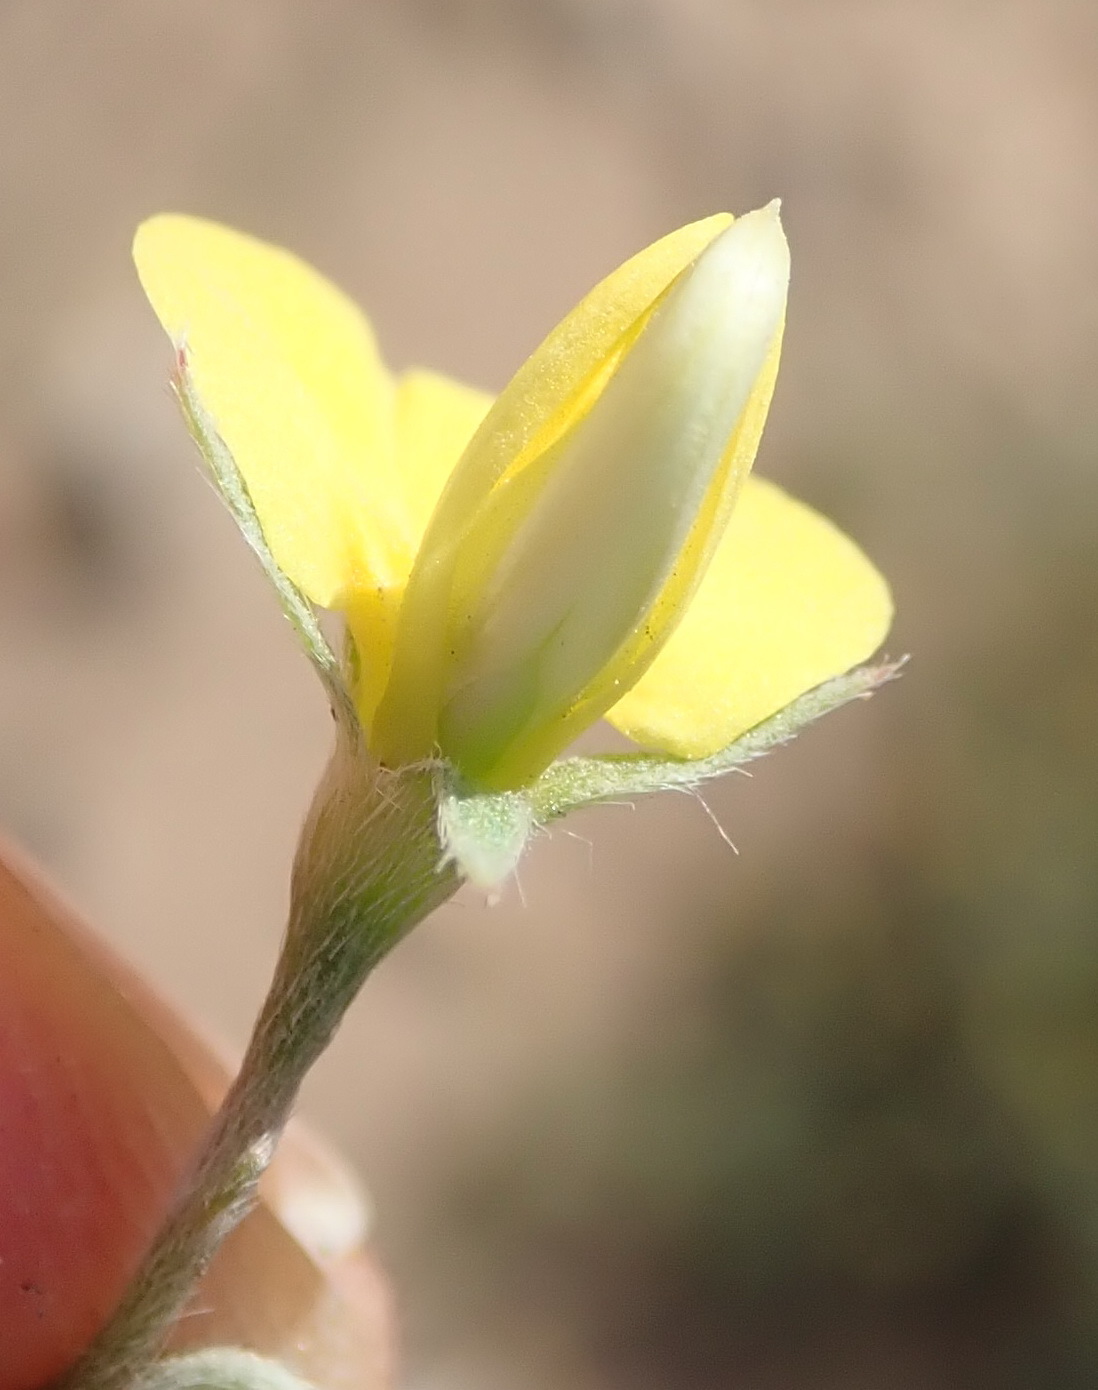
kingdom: Plantae
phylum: Tracheophyta
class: Magnoliopsida
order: Fabales
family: Fabaceae
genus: Lotononis
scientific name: Lotononis pungens
